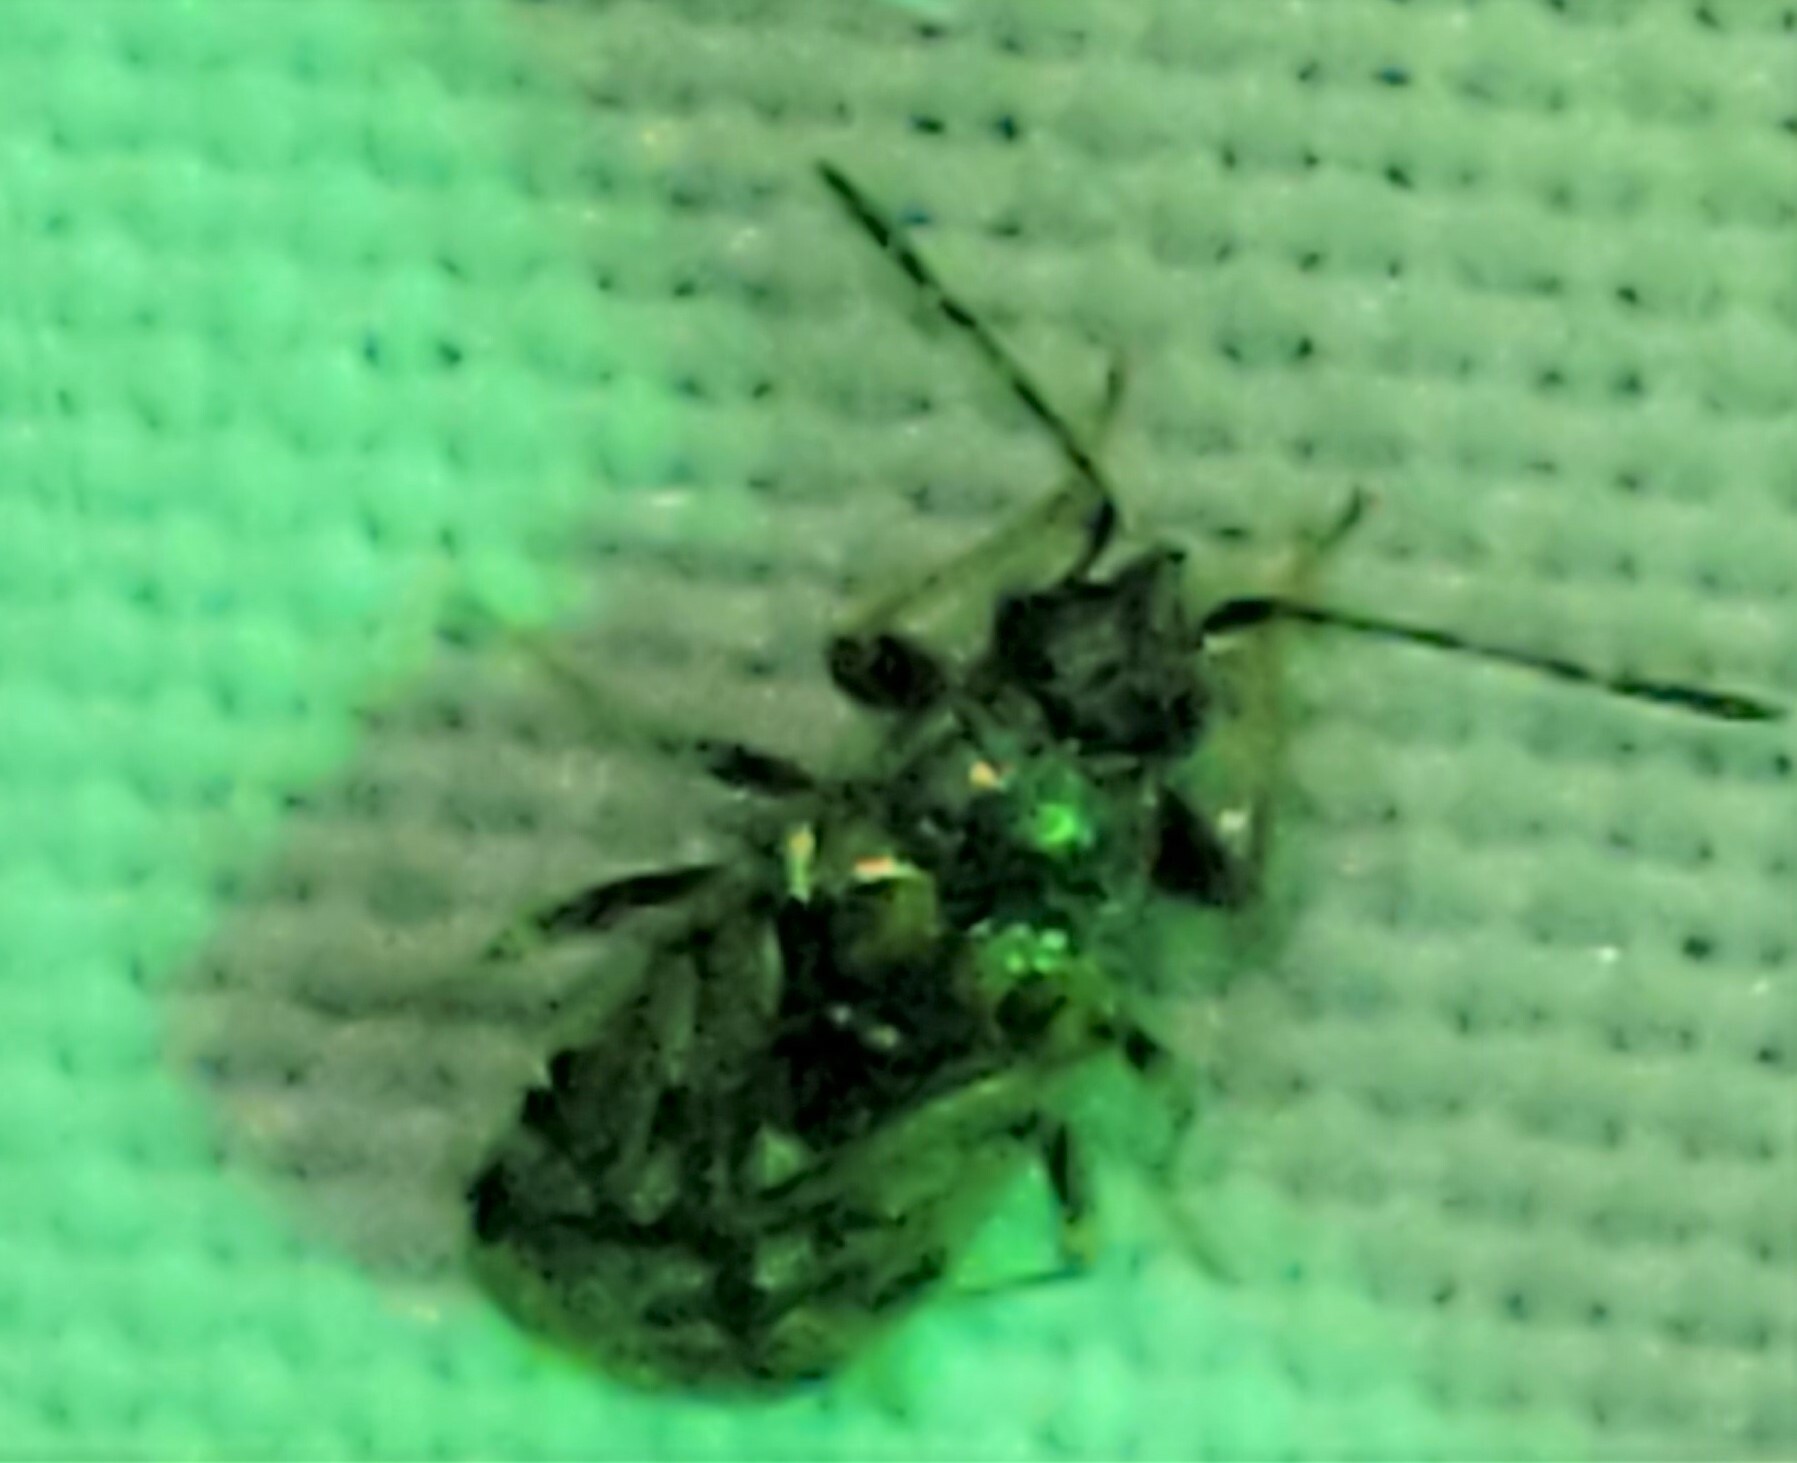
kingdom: Animalia
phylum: Arthropoda
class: Insecta
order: Hemiptera
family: Rhyparochromidae
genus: Prytanes
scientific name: Prytanes confusa
